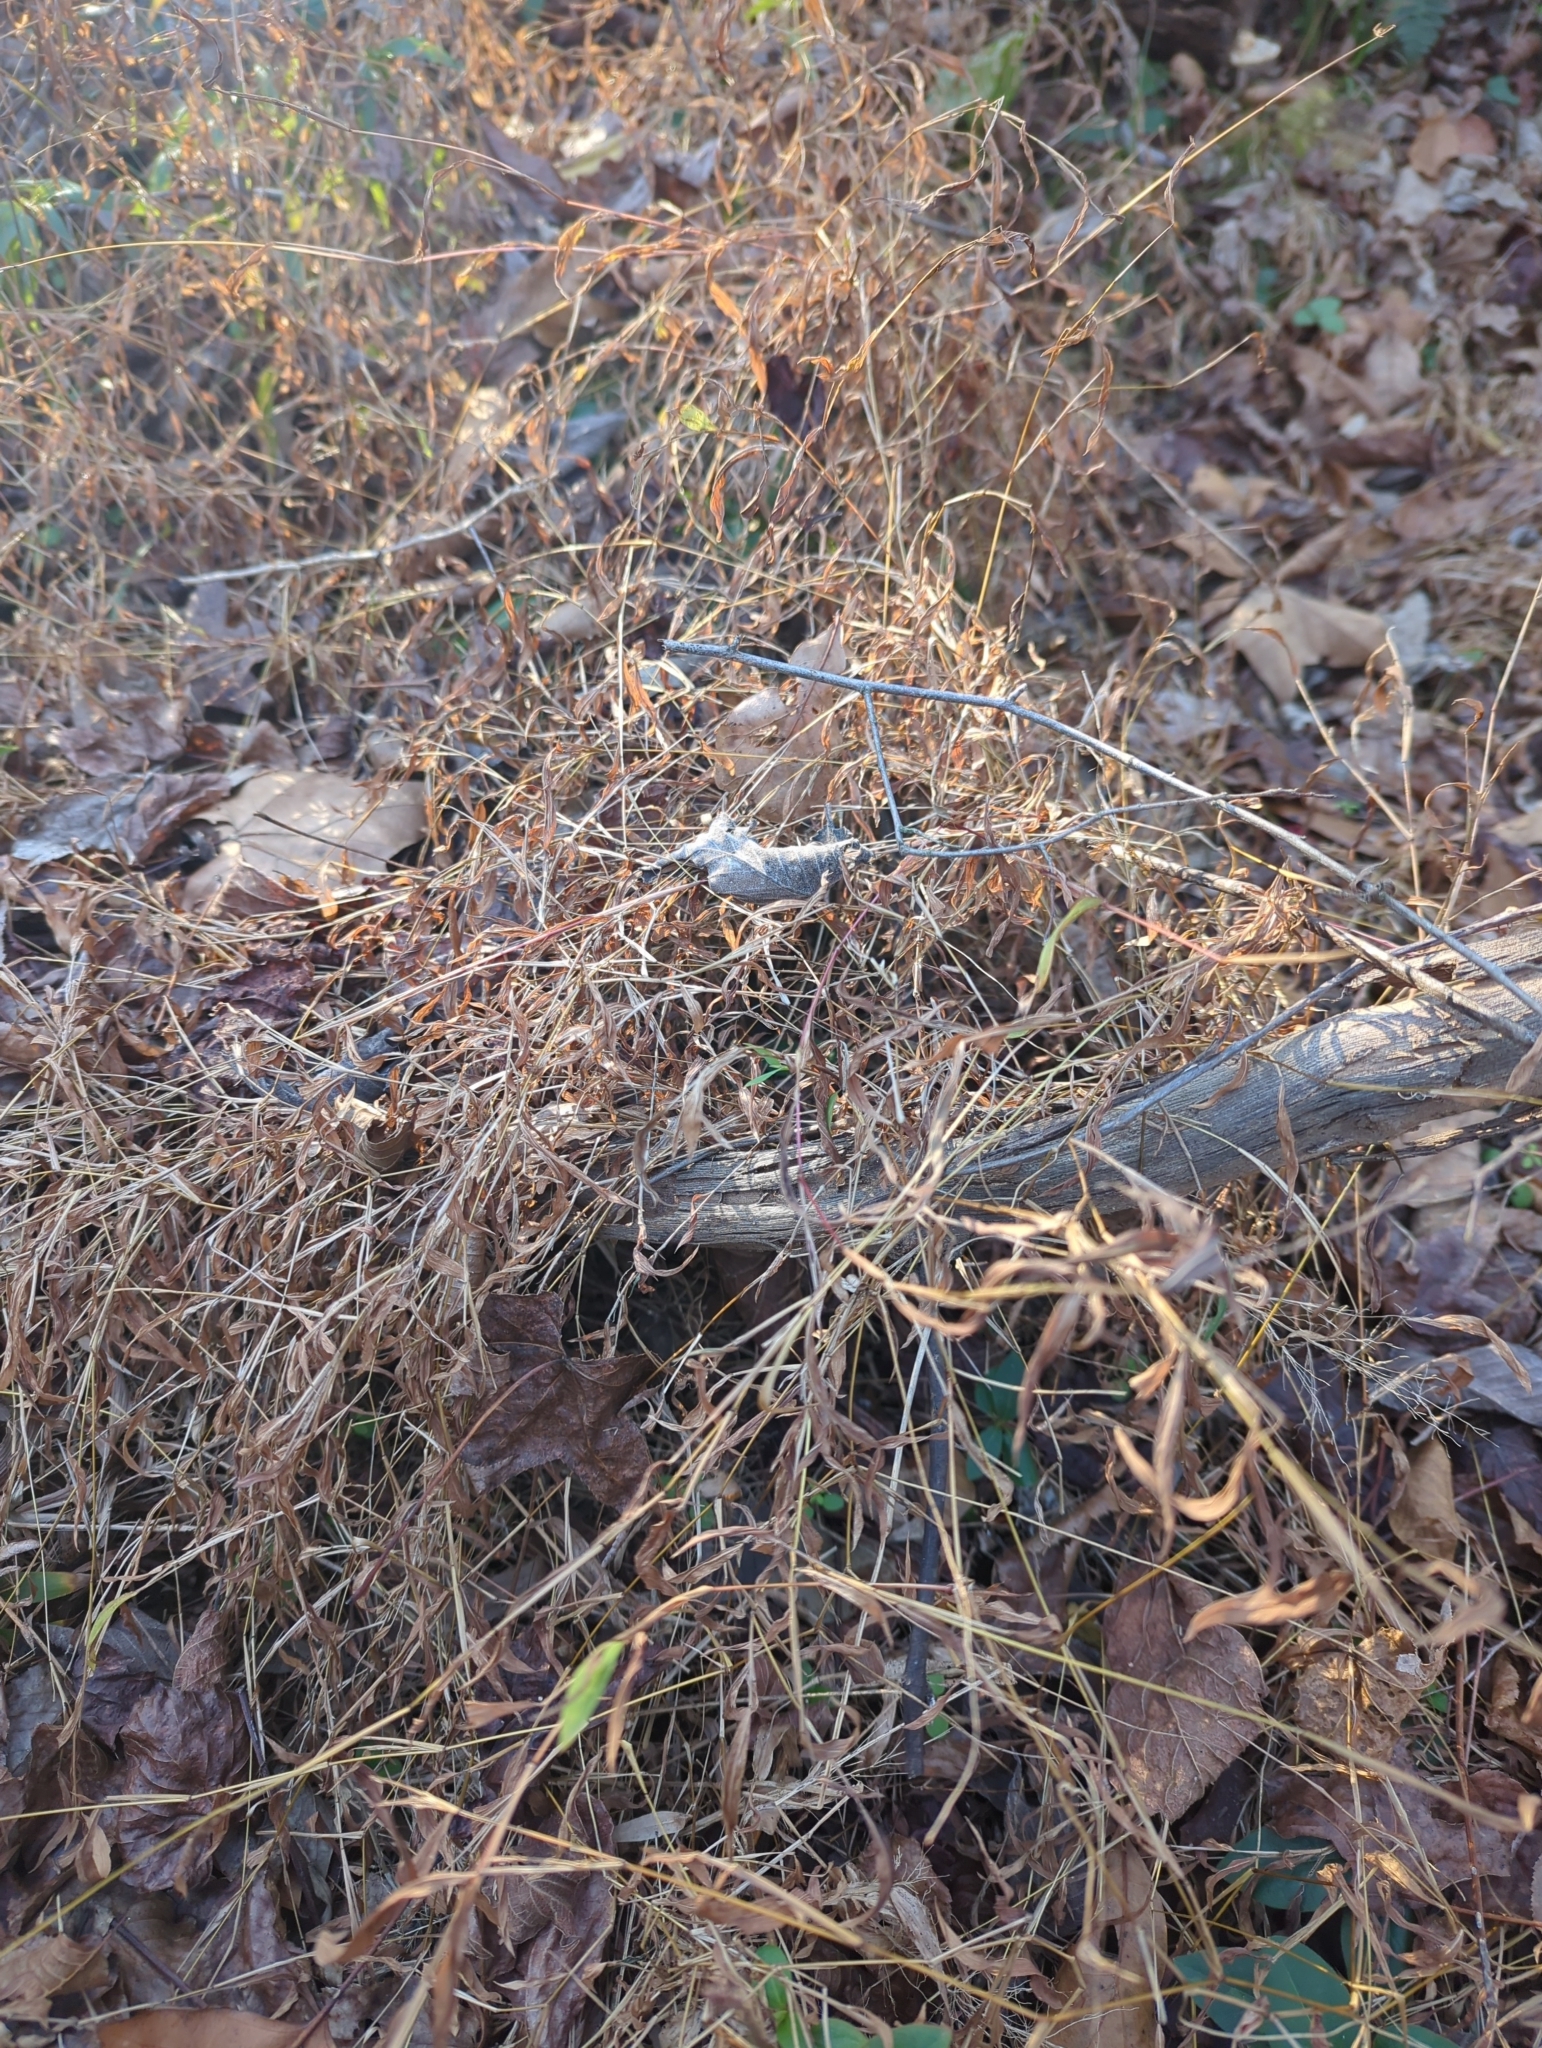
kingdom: Plantae
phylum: Tracheophyta
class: Liliopsida
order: Poales
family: Poaceae
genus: Microstegium
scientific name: Microstegium vimineum
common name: Japanese stiltgrass
